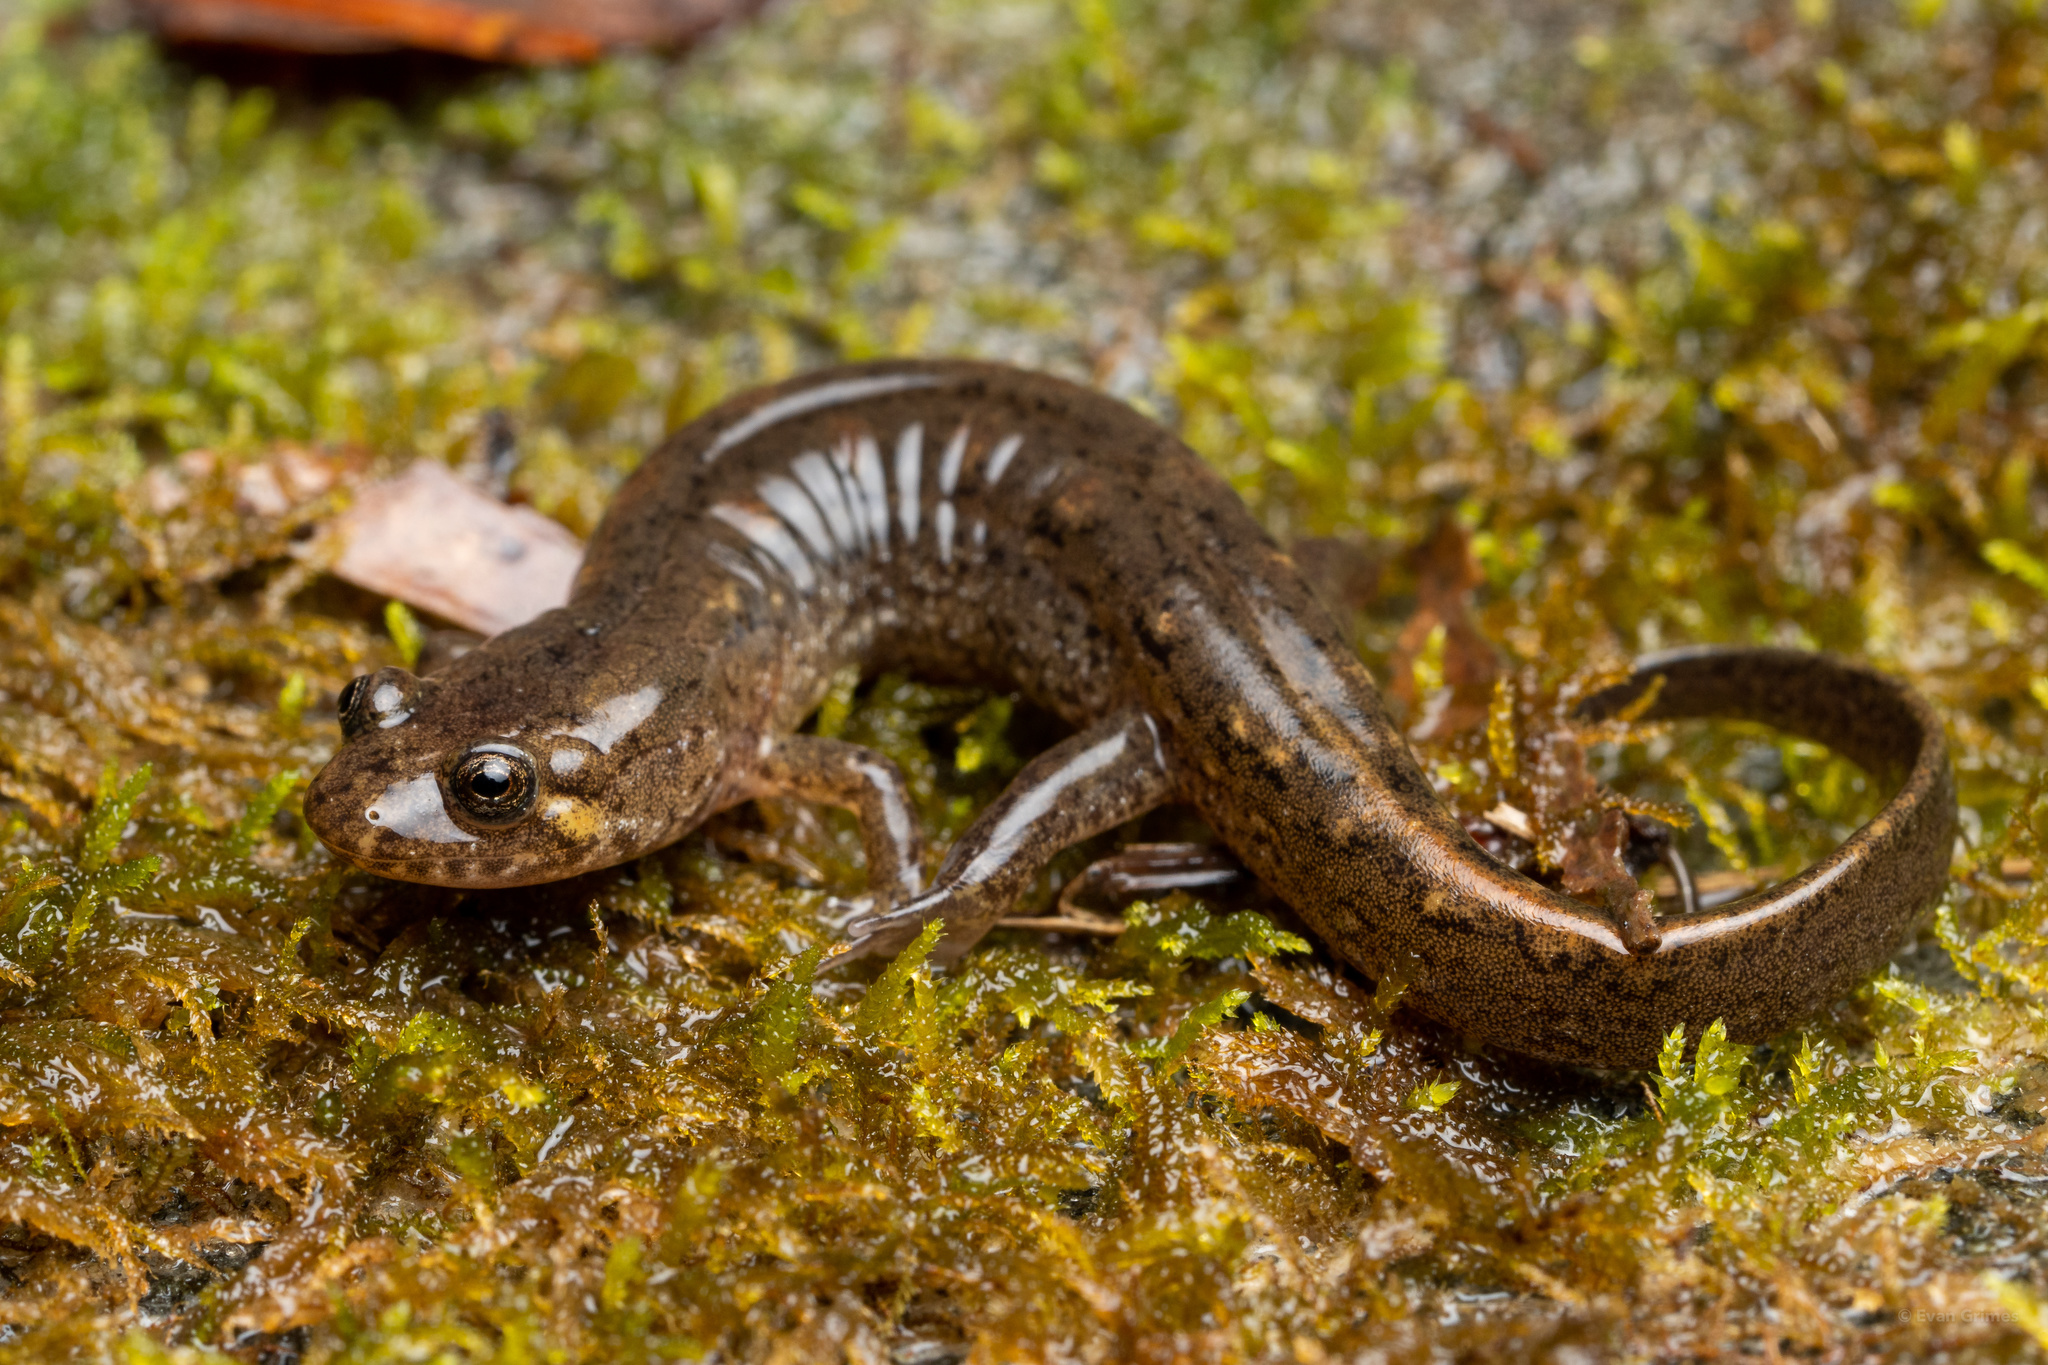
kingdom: Animalia
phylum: Chordata
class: Amphibia
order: Caudata
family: Plethodontidae
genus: Desmognathus
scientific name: Desmognathus
